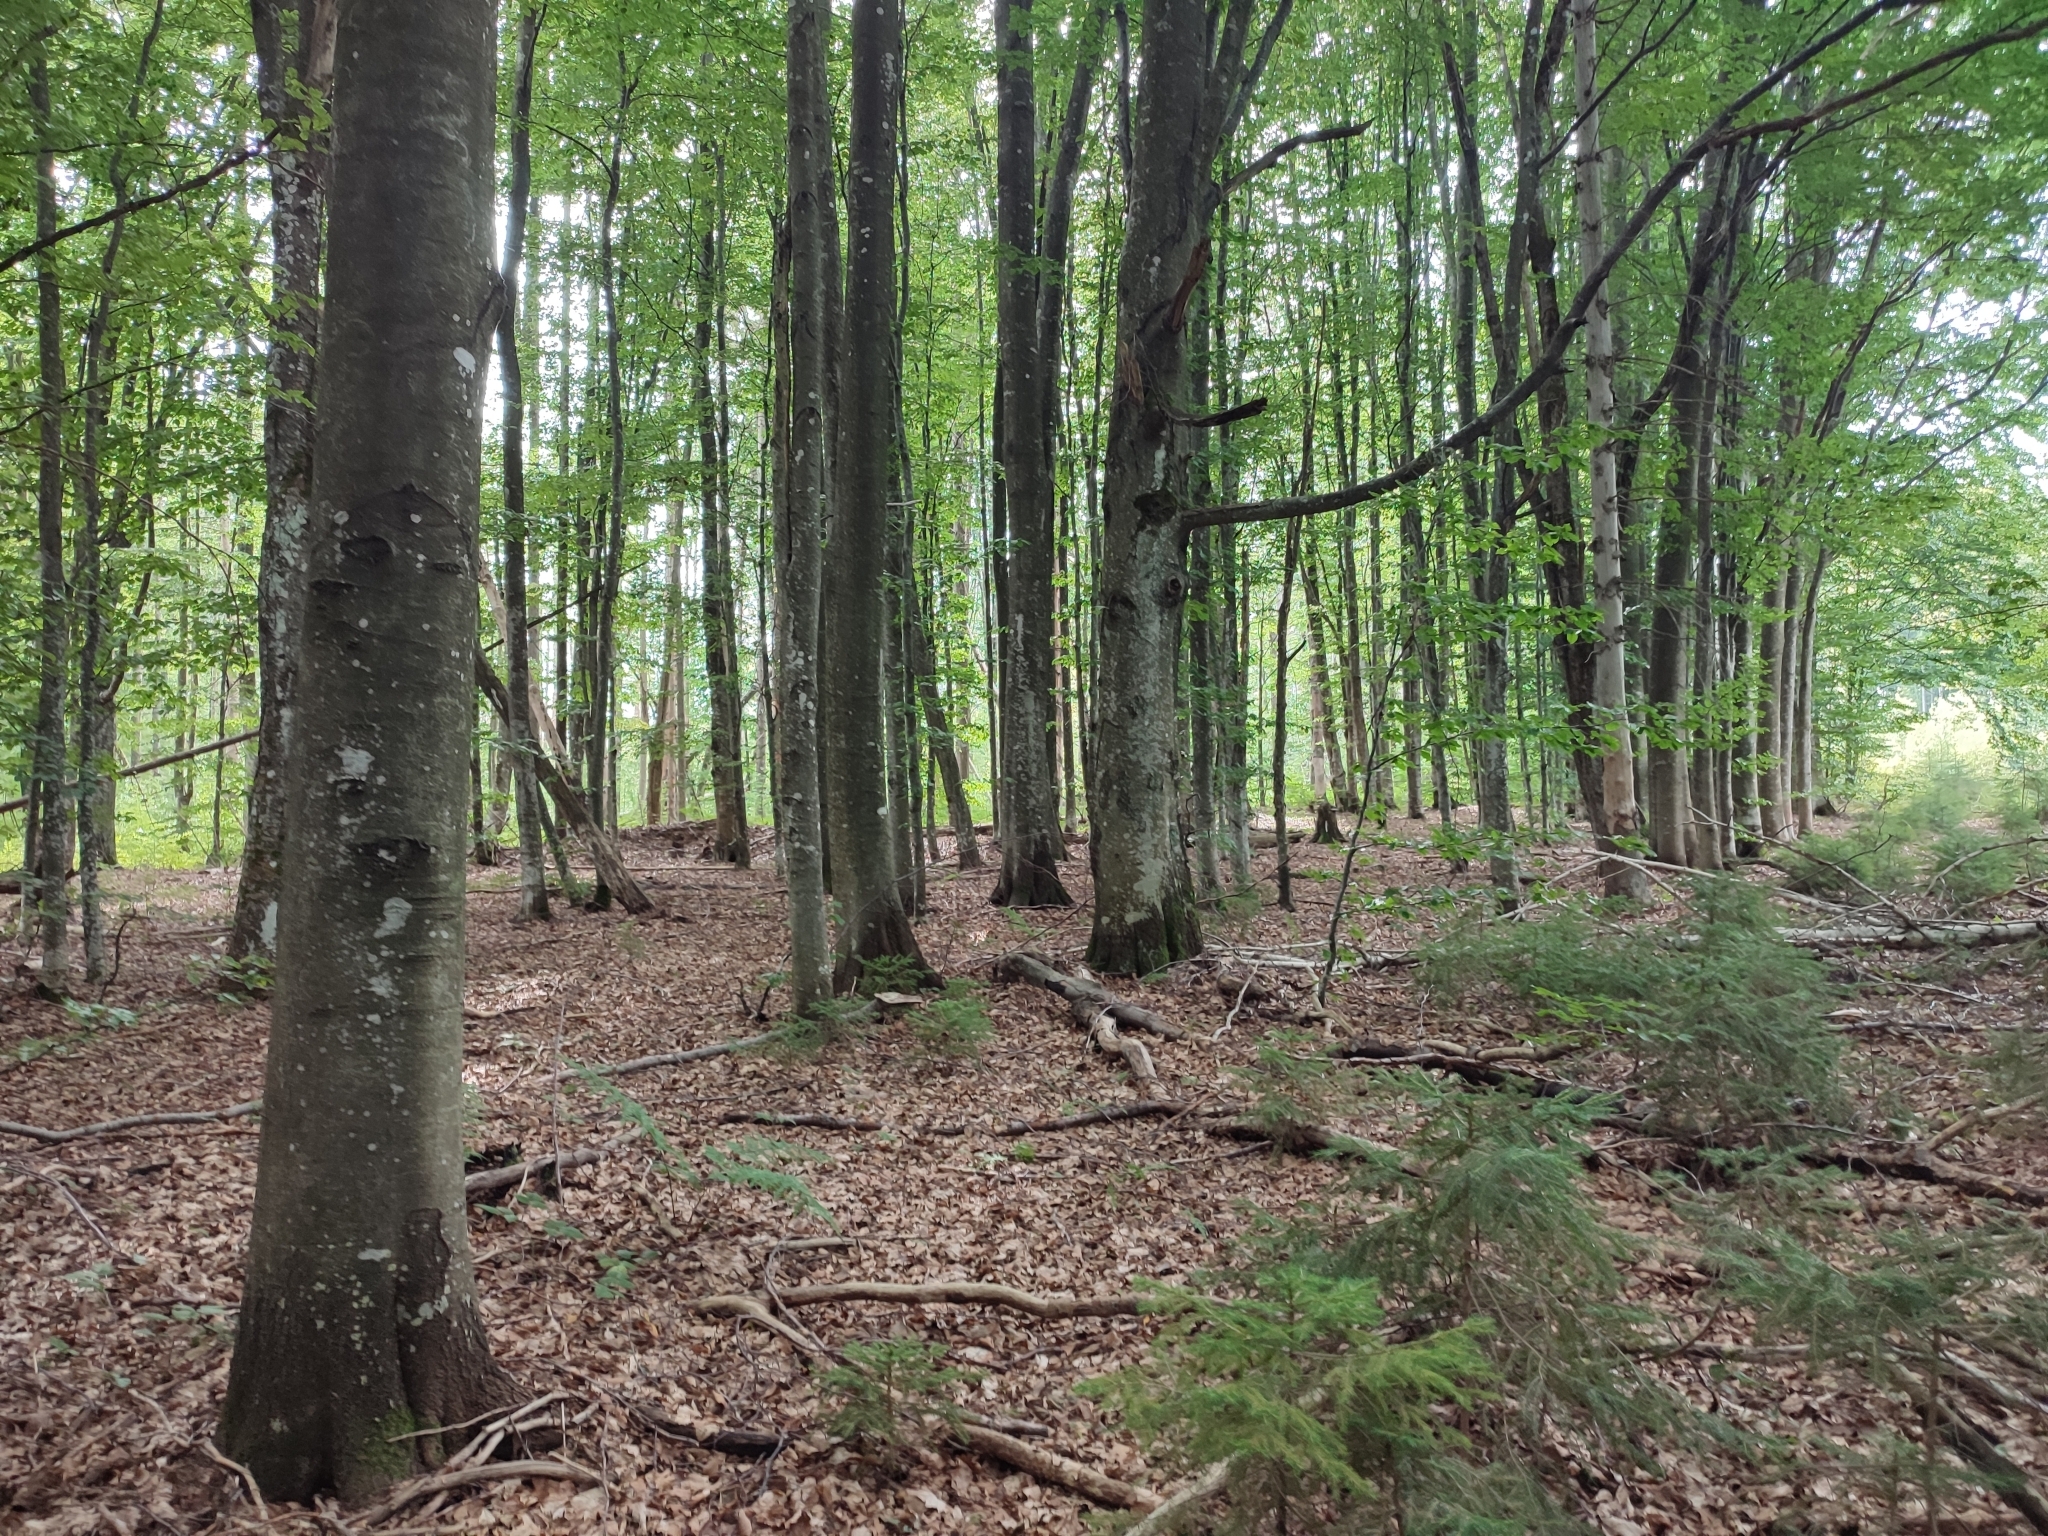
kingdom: Plantae
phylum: Tracheophyta
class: Magnoliopsida
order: Fagales
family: Fagaceae
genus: Fagus
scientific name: Fagus sylvatica
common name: Beech
